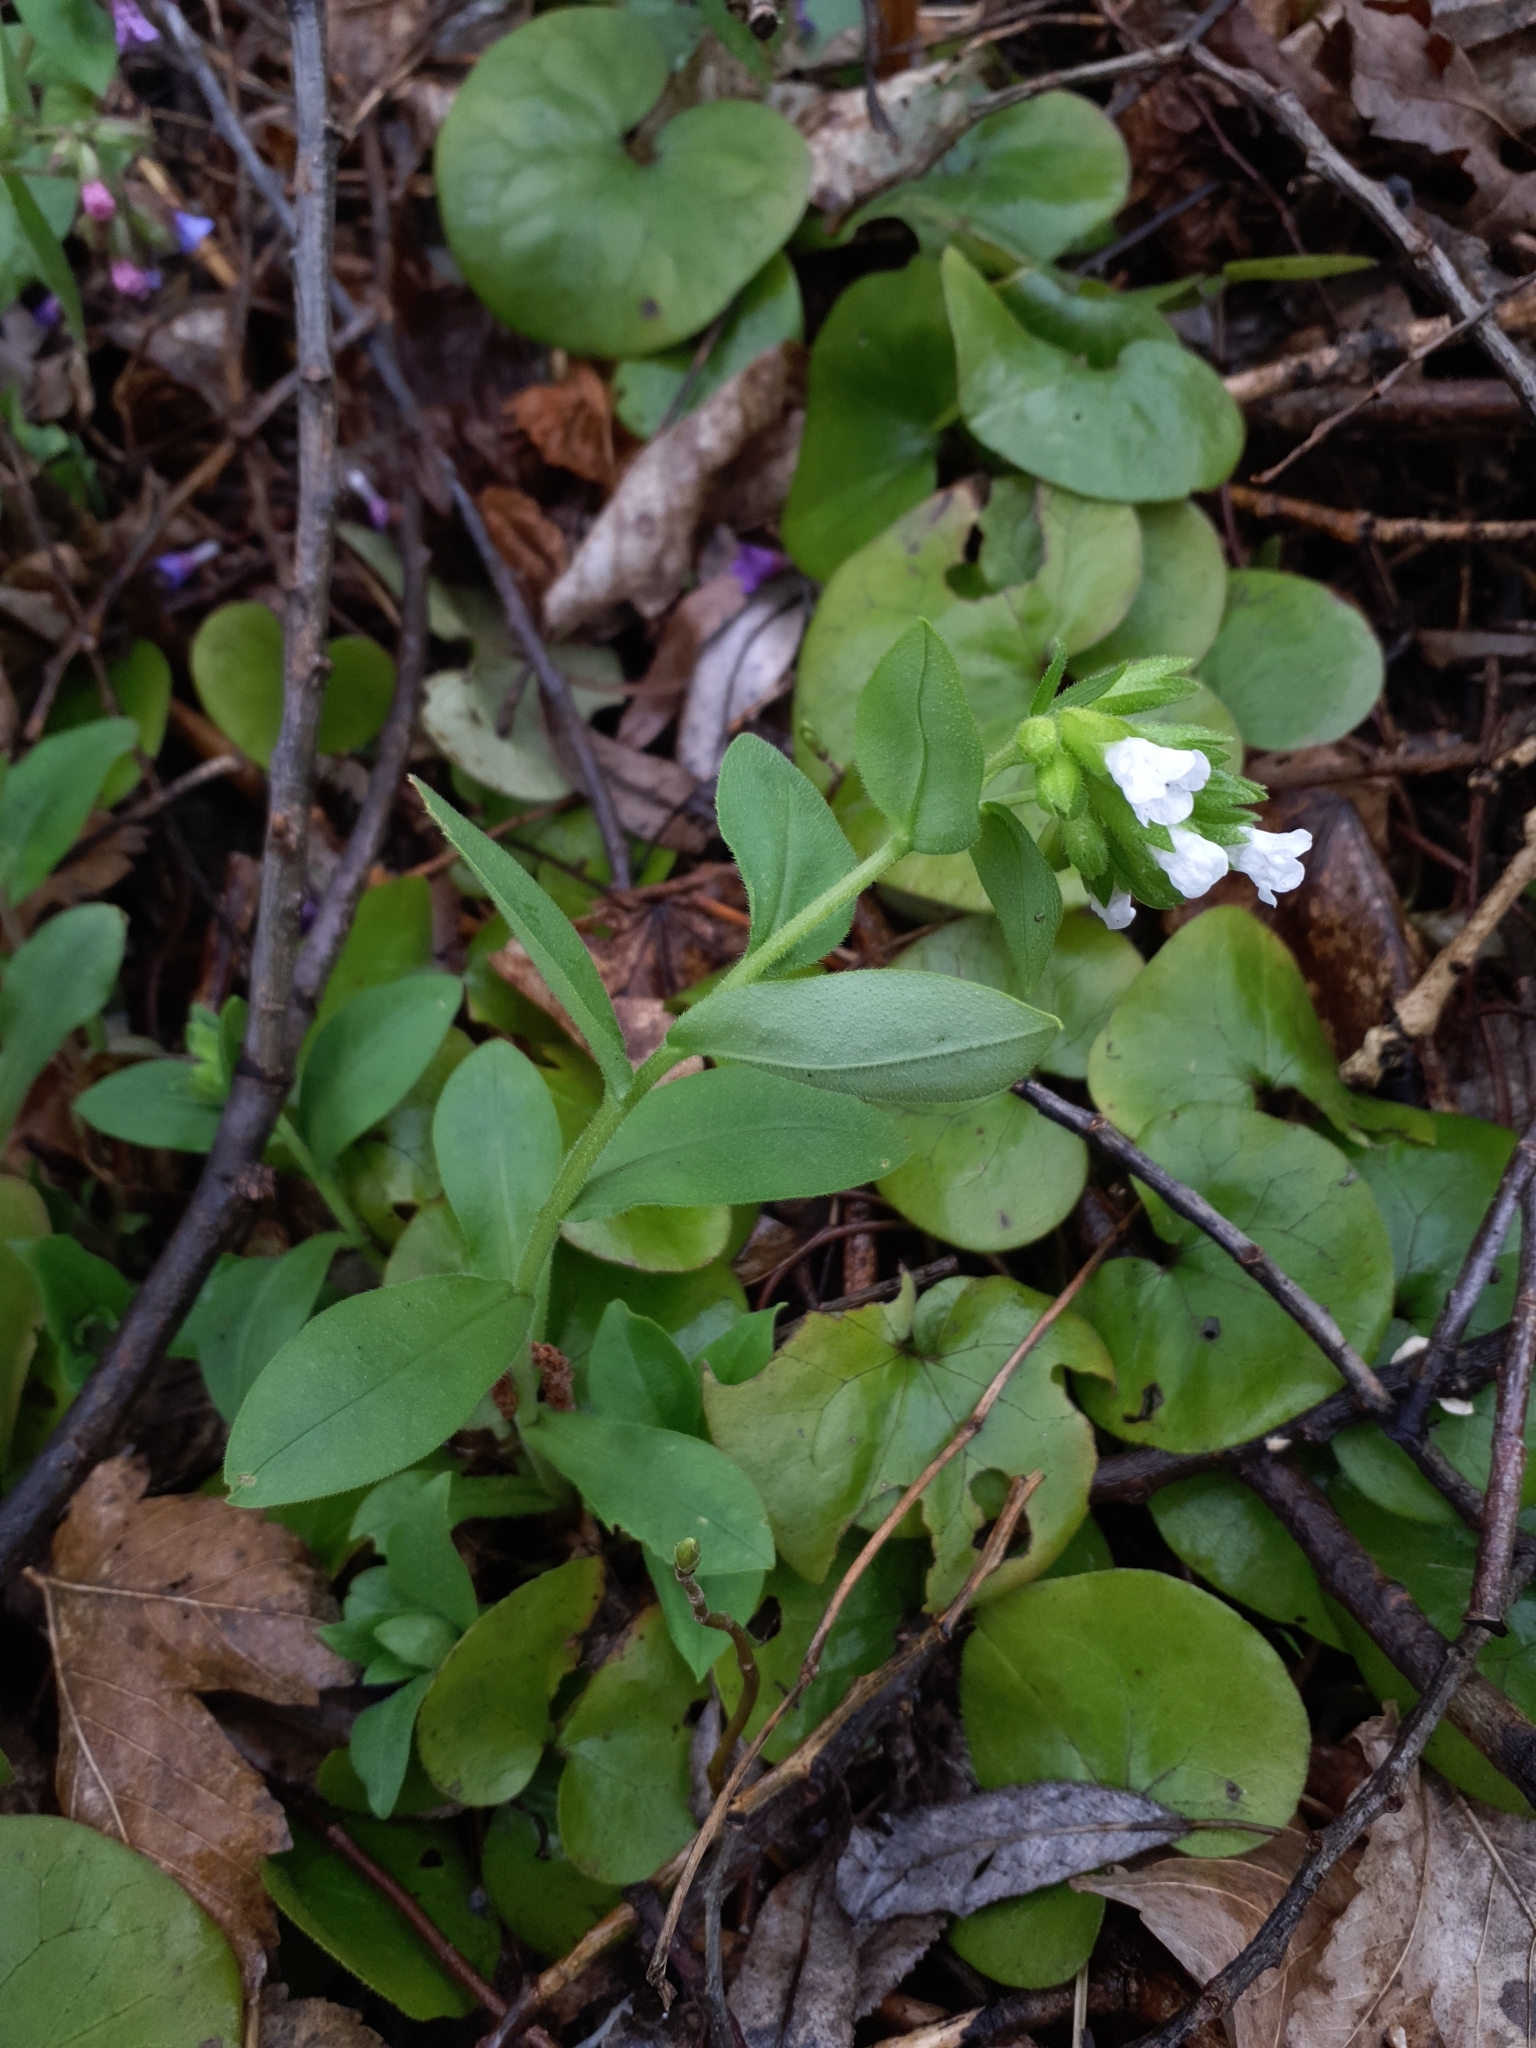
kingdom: Plantae
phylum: Tracheophyta
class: Magnoliopsida
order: Boraginales
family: Boraginaceae
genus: Pulmonaria
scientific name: Pulmonaria obscura
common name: Suffolk lungwort
